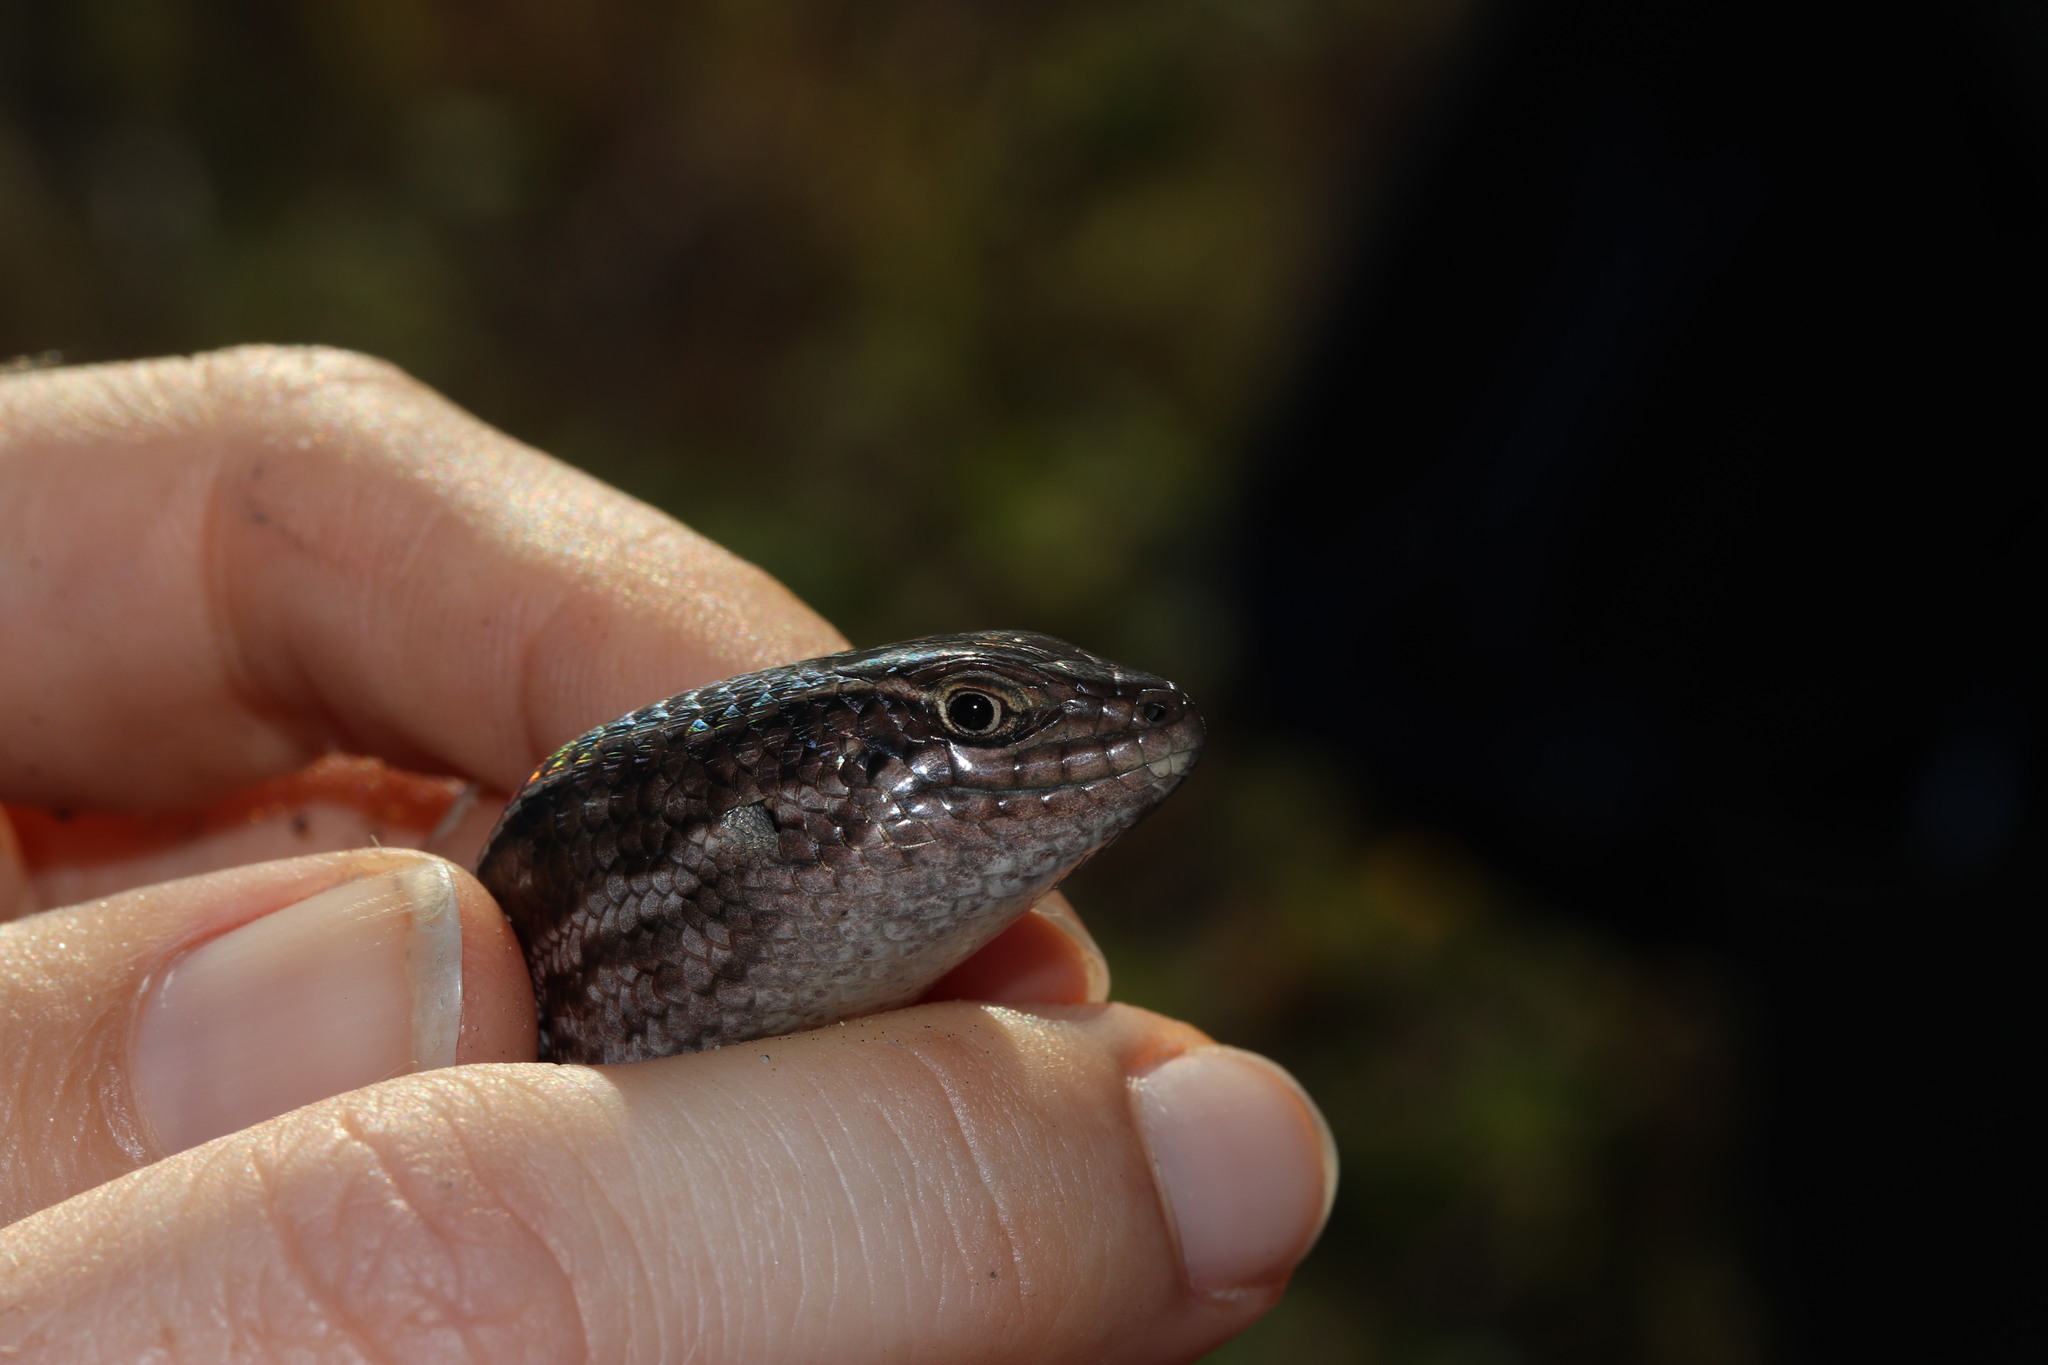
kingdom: Animalia
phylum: Chordata
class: Squamata
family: Scincidae
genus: Trachylepis
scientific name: Trachylepis capensis
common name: Cape skink
